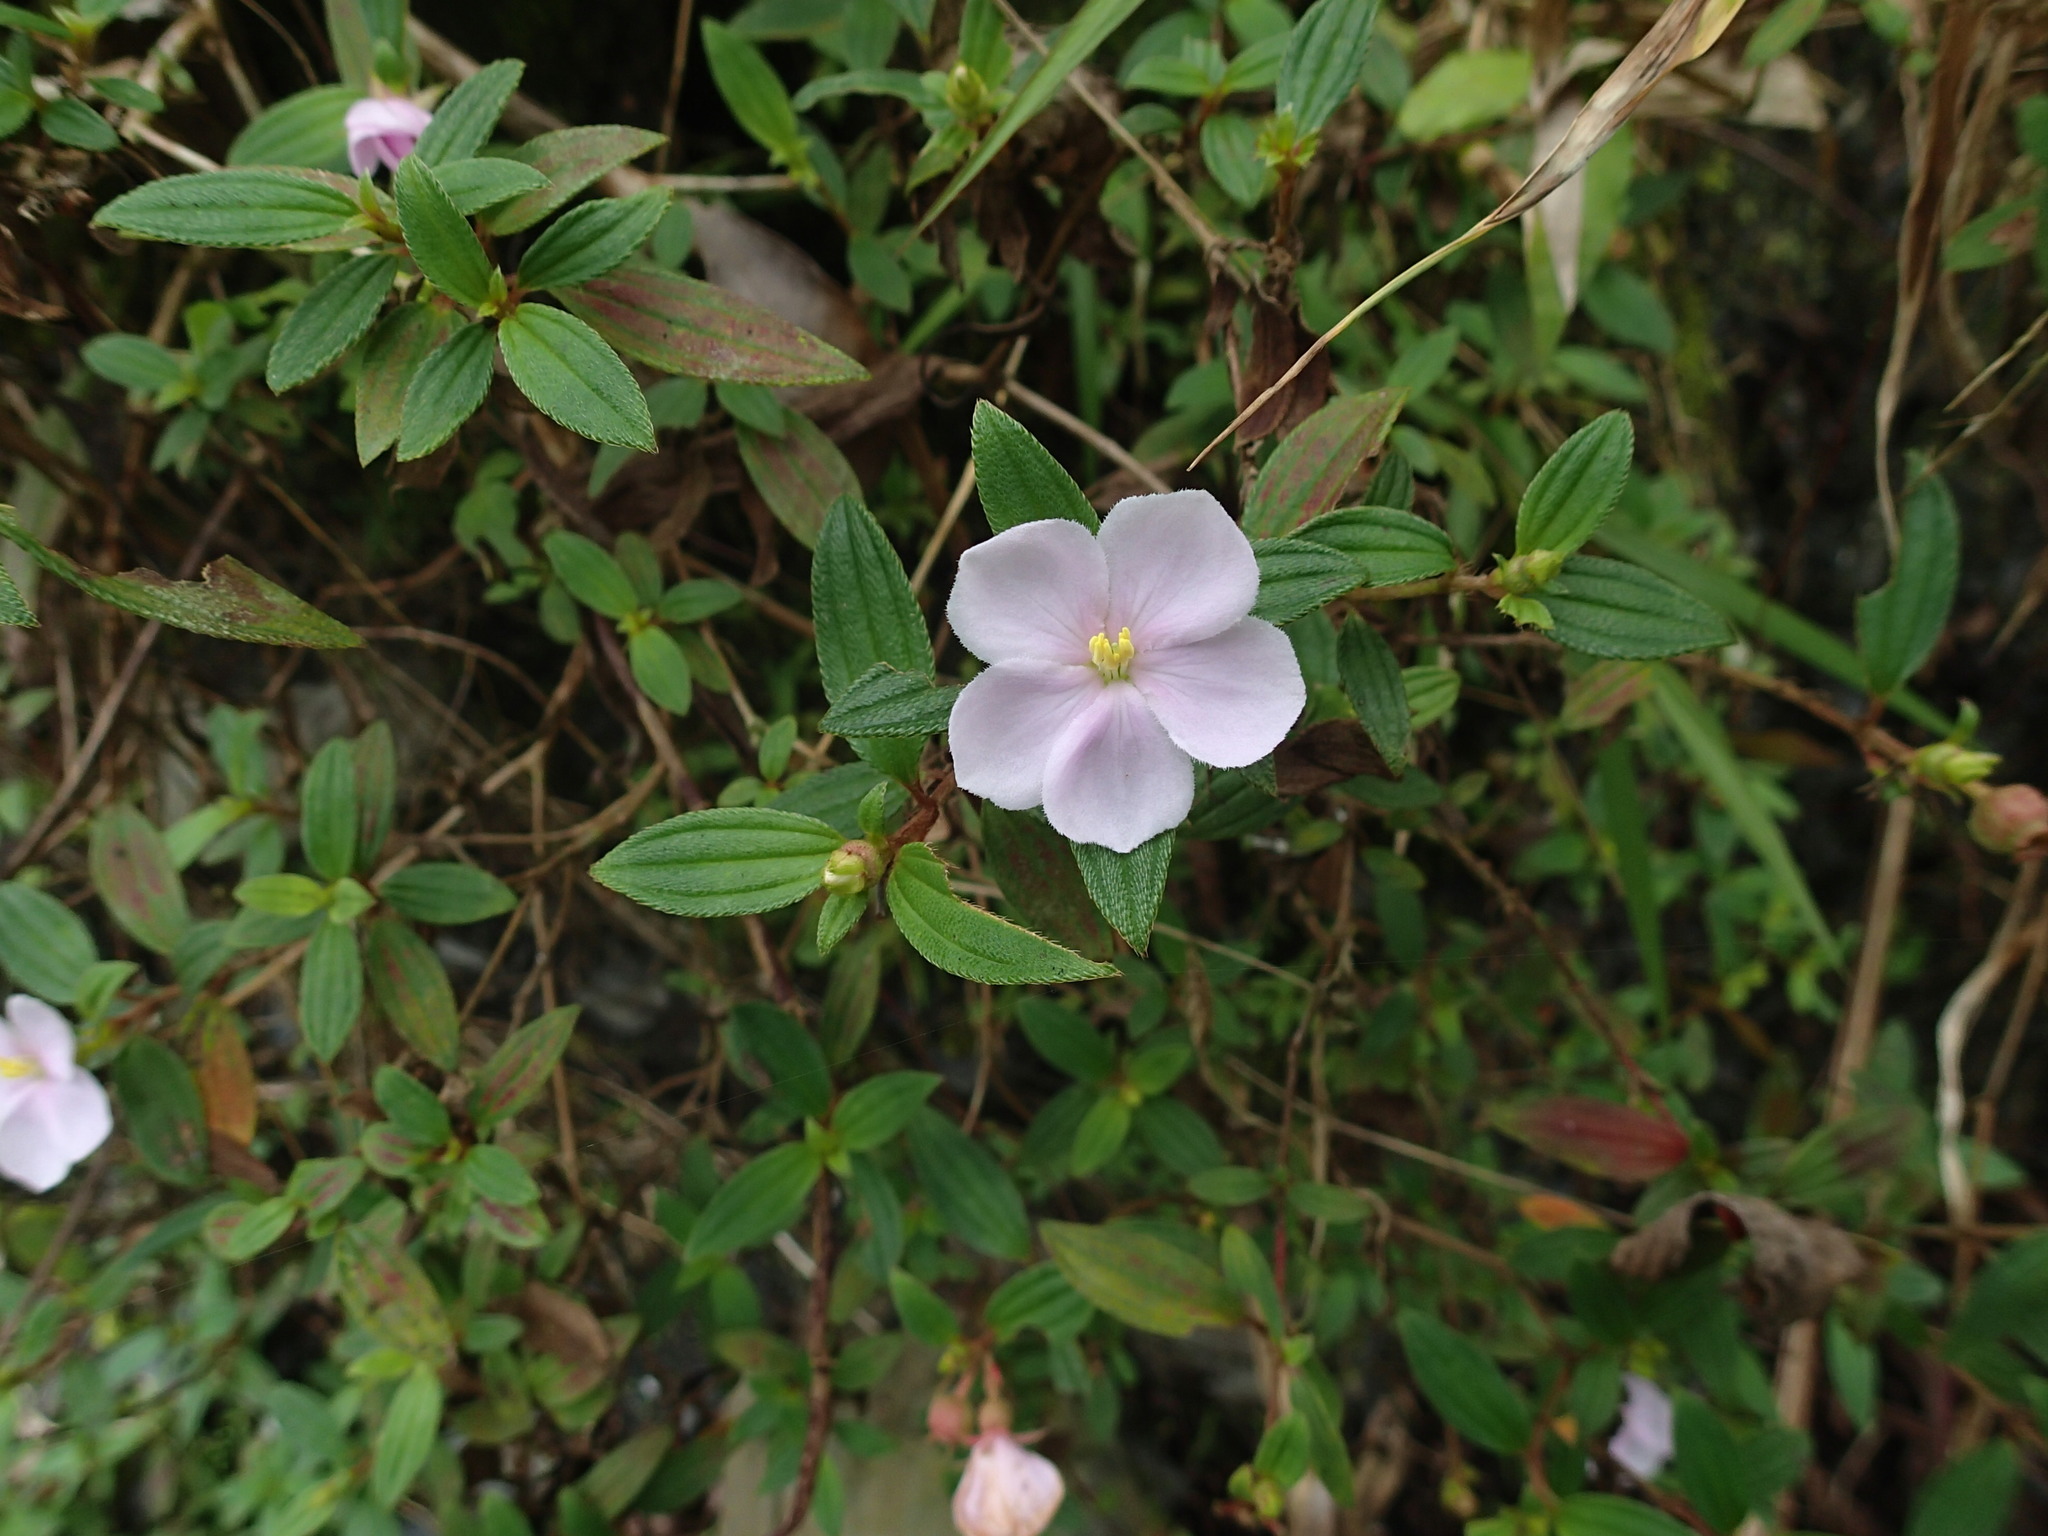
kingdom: Plantae
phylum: Tracheophyta
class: Magnoliopsida
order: Myrtales
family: Melastomataceae
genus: Melastoma
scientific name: Melastoma scaberrima
